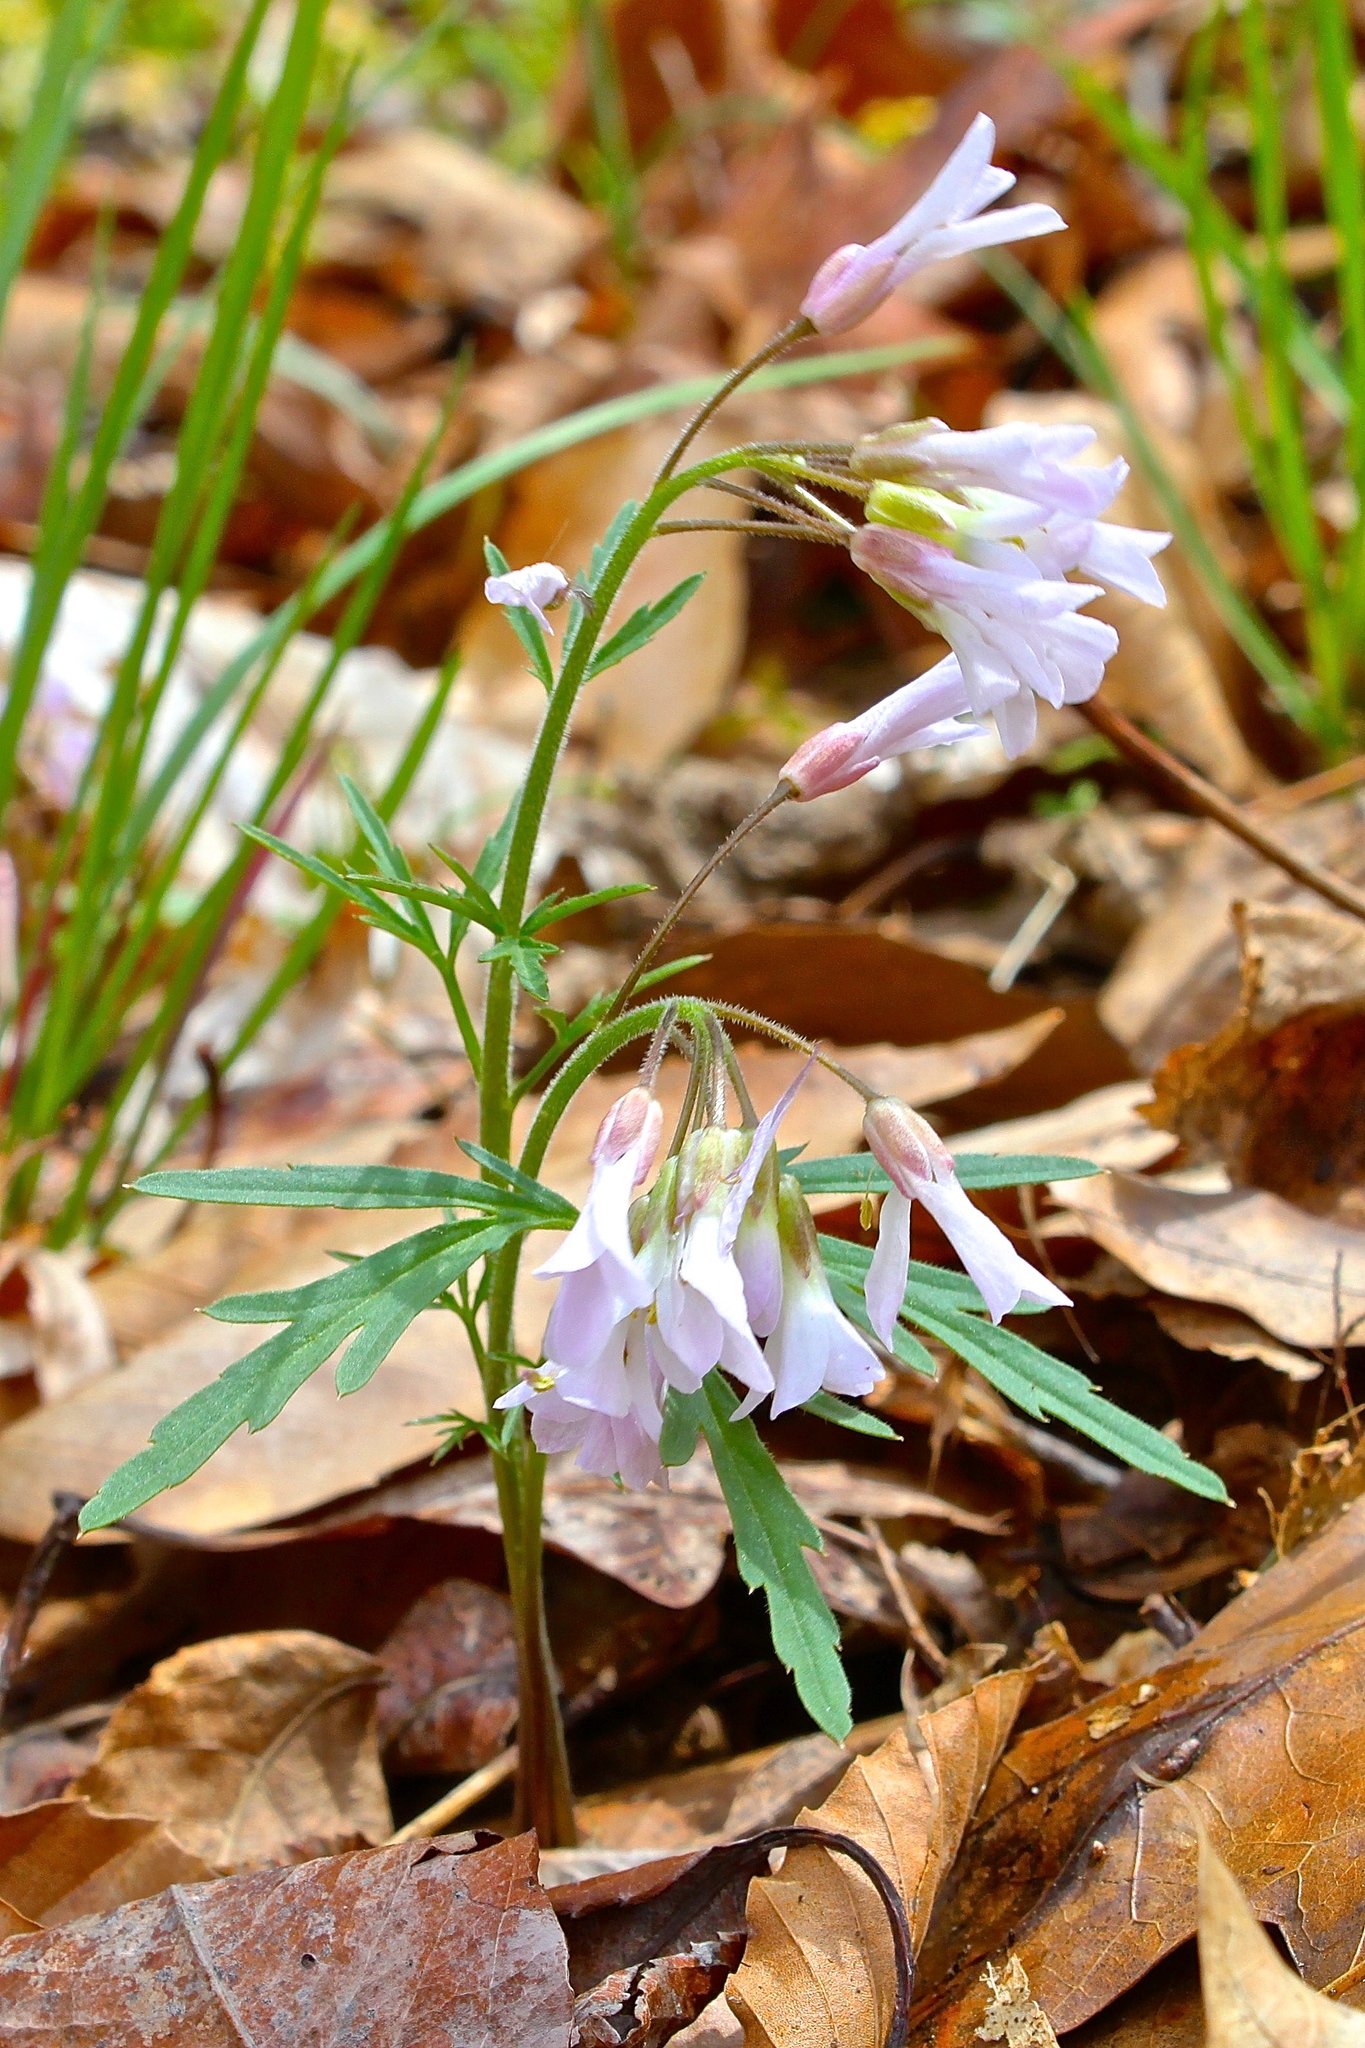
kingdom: Plantae
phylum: Tracheophyta
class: Magnoliopsida
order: Brassicales
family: Brassicaceae
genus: Cardamine
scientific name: Cardamine concatenata
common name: Cut-leaf toothcup
